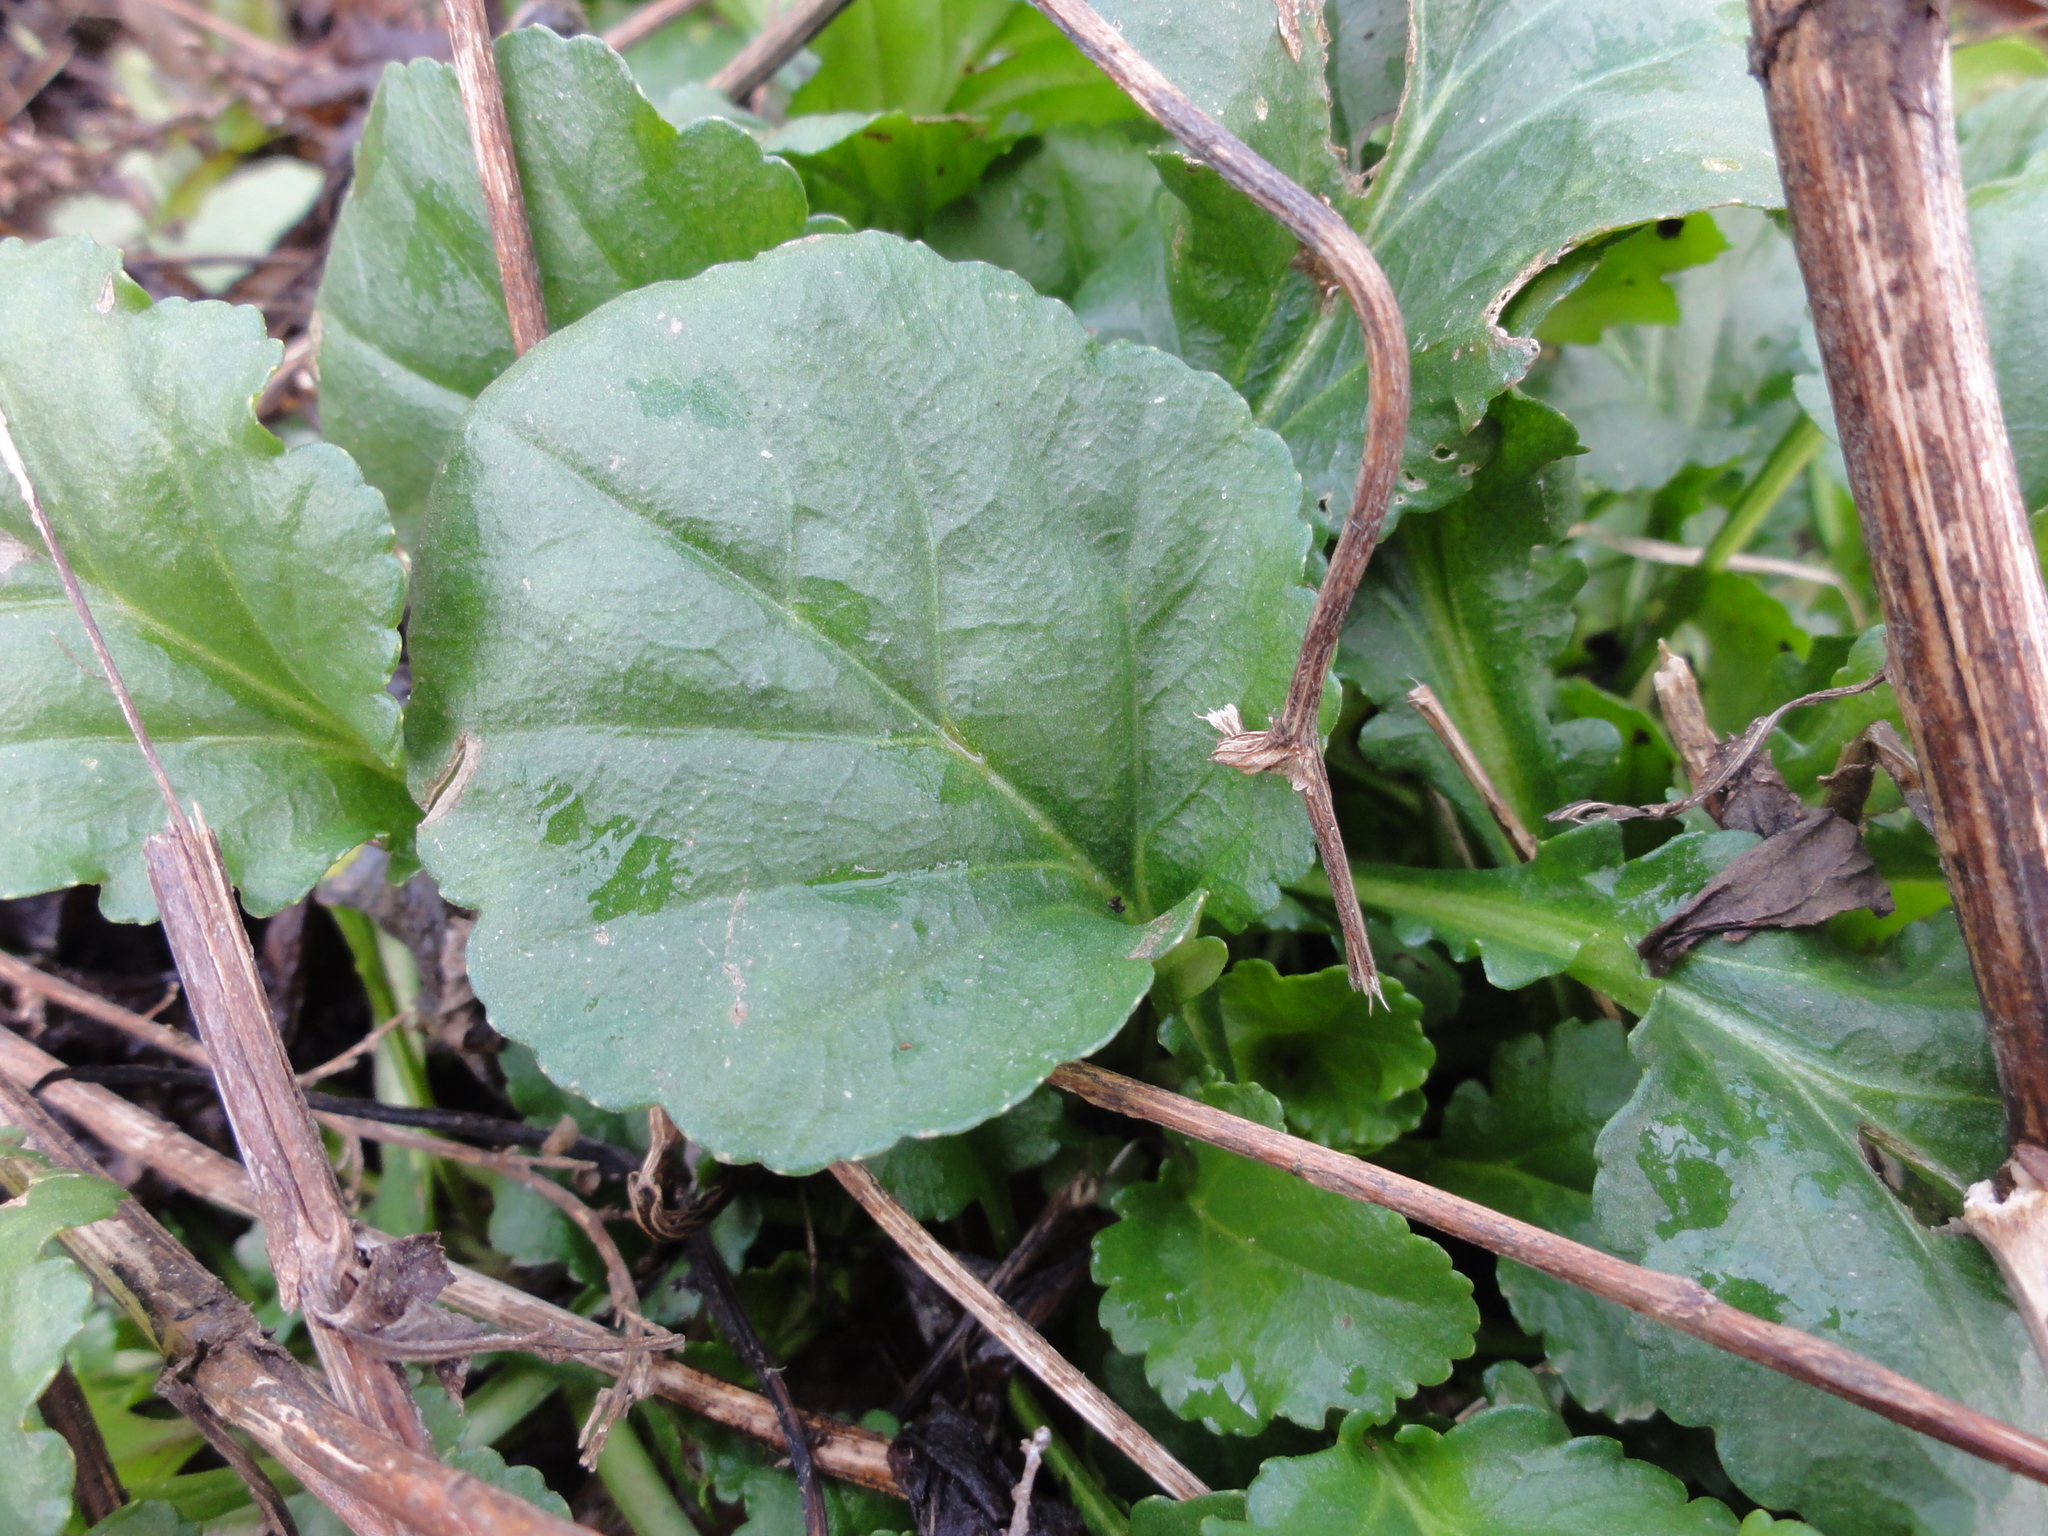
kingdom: Plantae
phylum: Tracheophyta
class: Magnoliopsida
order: Asterales
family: Asteraceae
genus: Leucanthemum
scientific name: Leucanthemum vulgare
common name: Oxeye daisy
